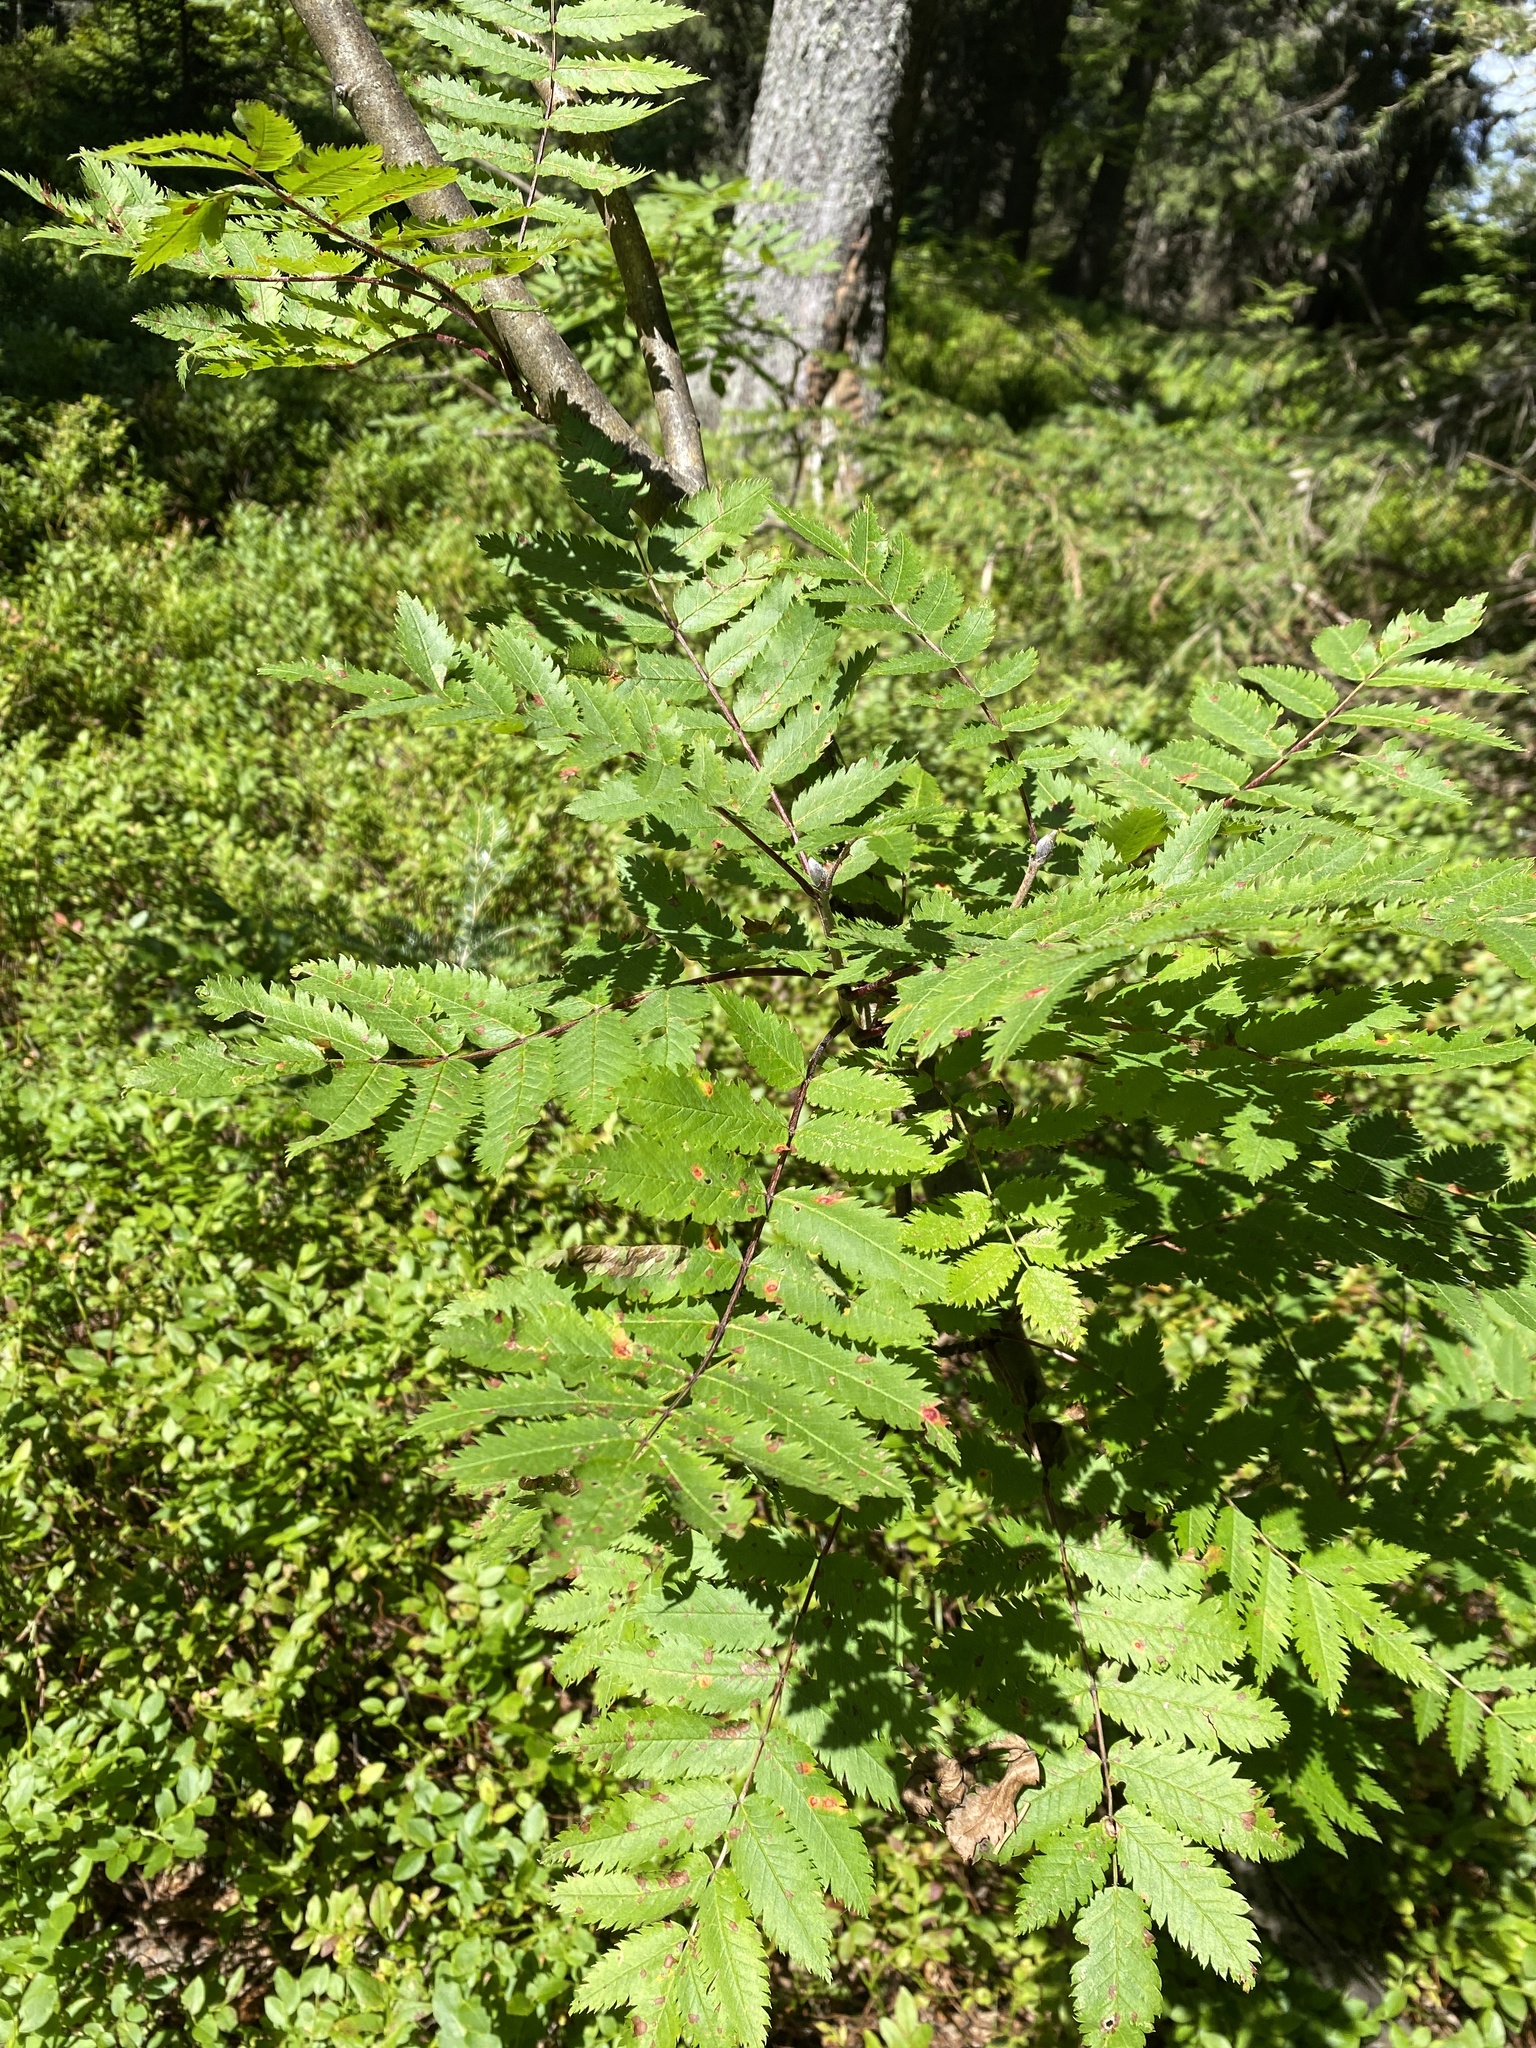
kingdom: Plantae
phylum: Tracheophyta
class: Magnoliopsida
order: Rosales
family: Rosaceae
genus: Sorbus
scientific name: Sorbus aucuparia
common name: Rowan
